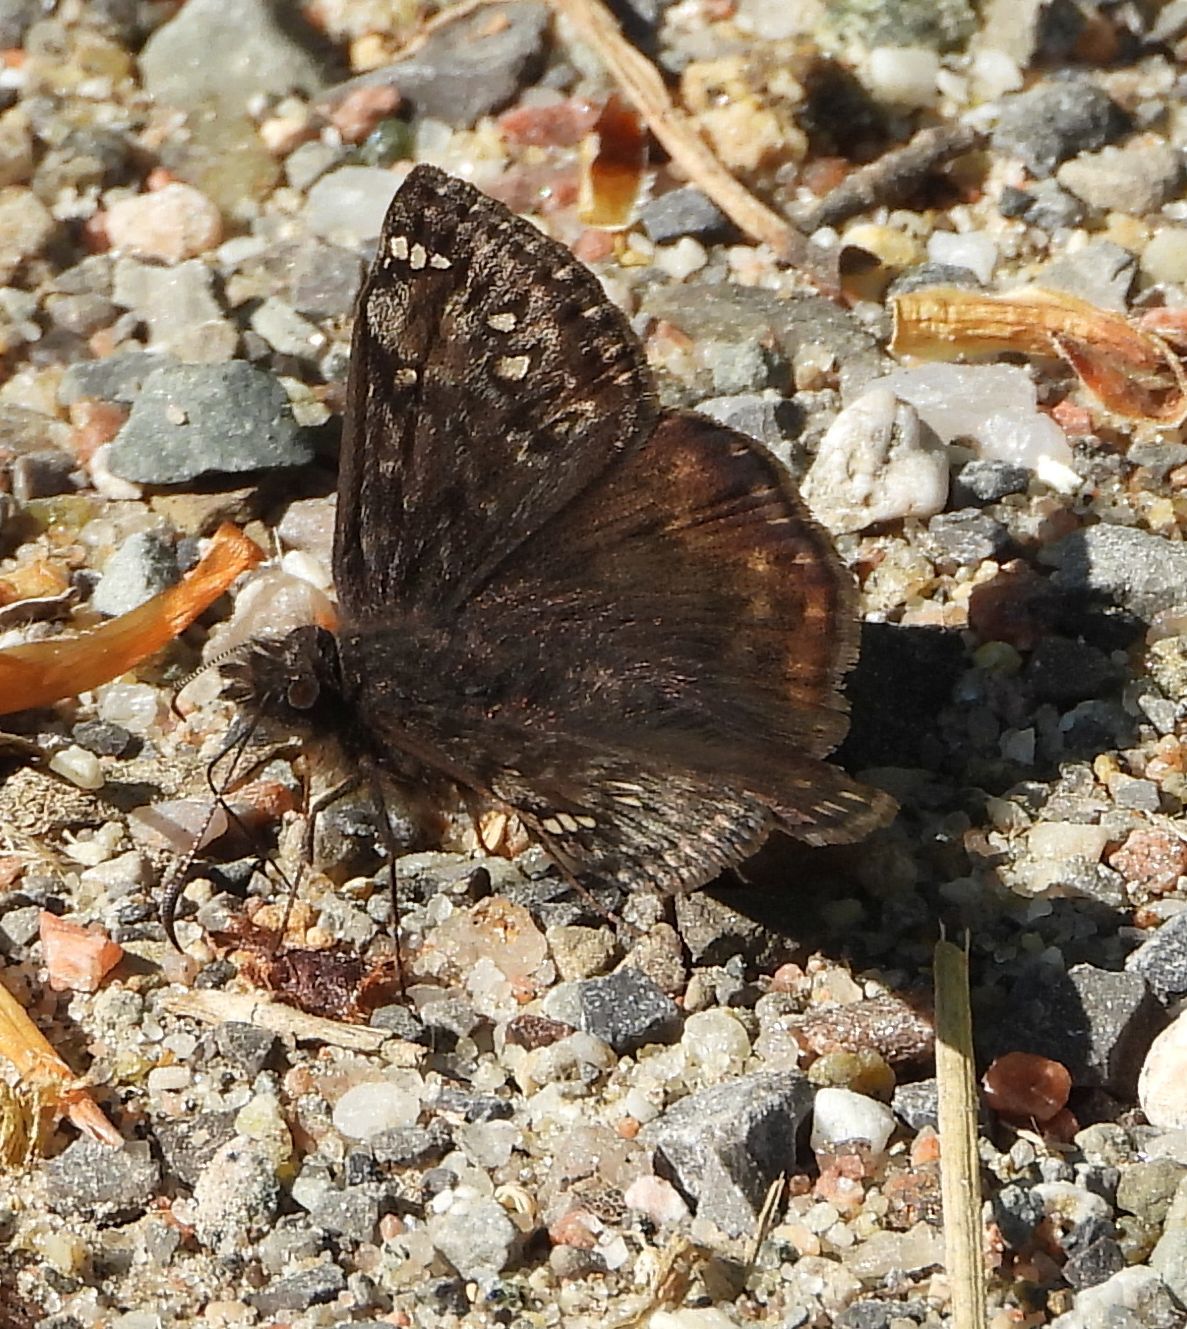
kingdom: Animalia
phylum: Arthropoda
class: Insecta
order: Lepidoptera
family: Hesperiidae
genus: Erynnis
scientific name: Erynnis juvenalis
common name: Juvenal's duskywing
